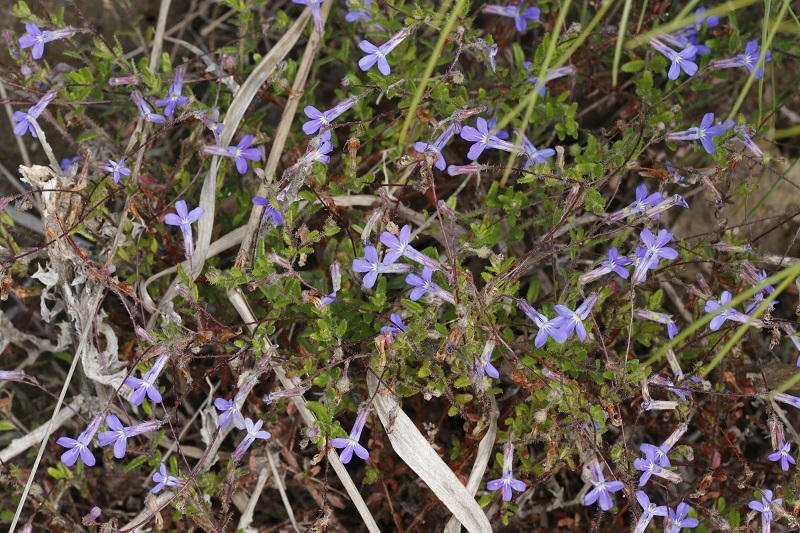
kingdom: Plantae
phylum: Tracheophyta
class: Magnoliopsida
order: Asterales
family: Campanulaceae
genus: Lobelia
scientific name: Lobelia neglecta
